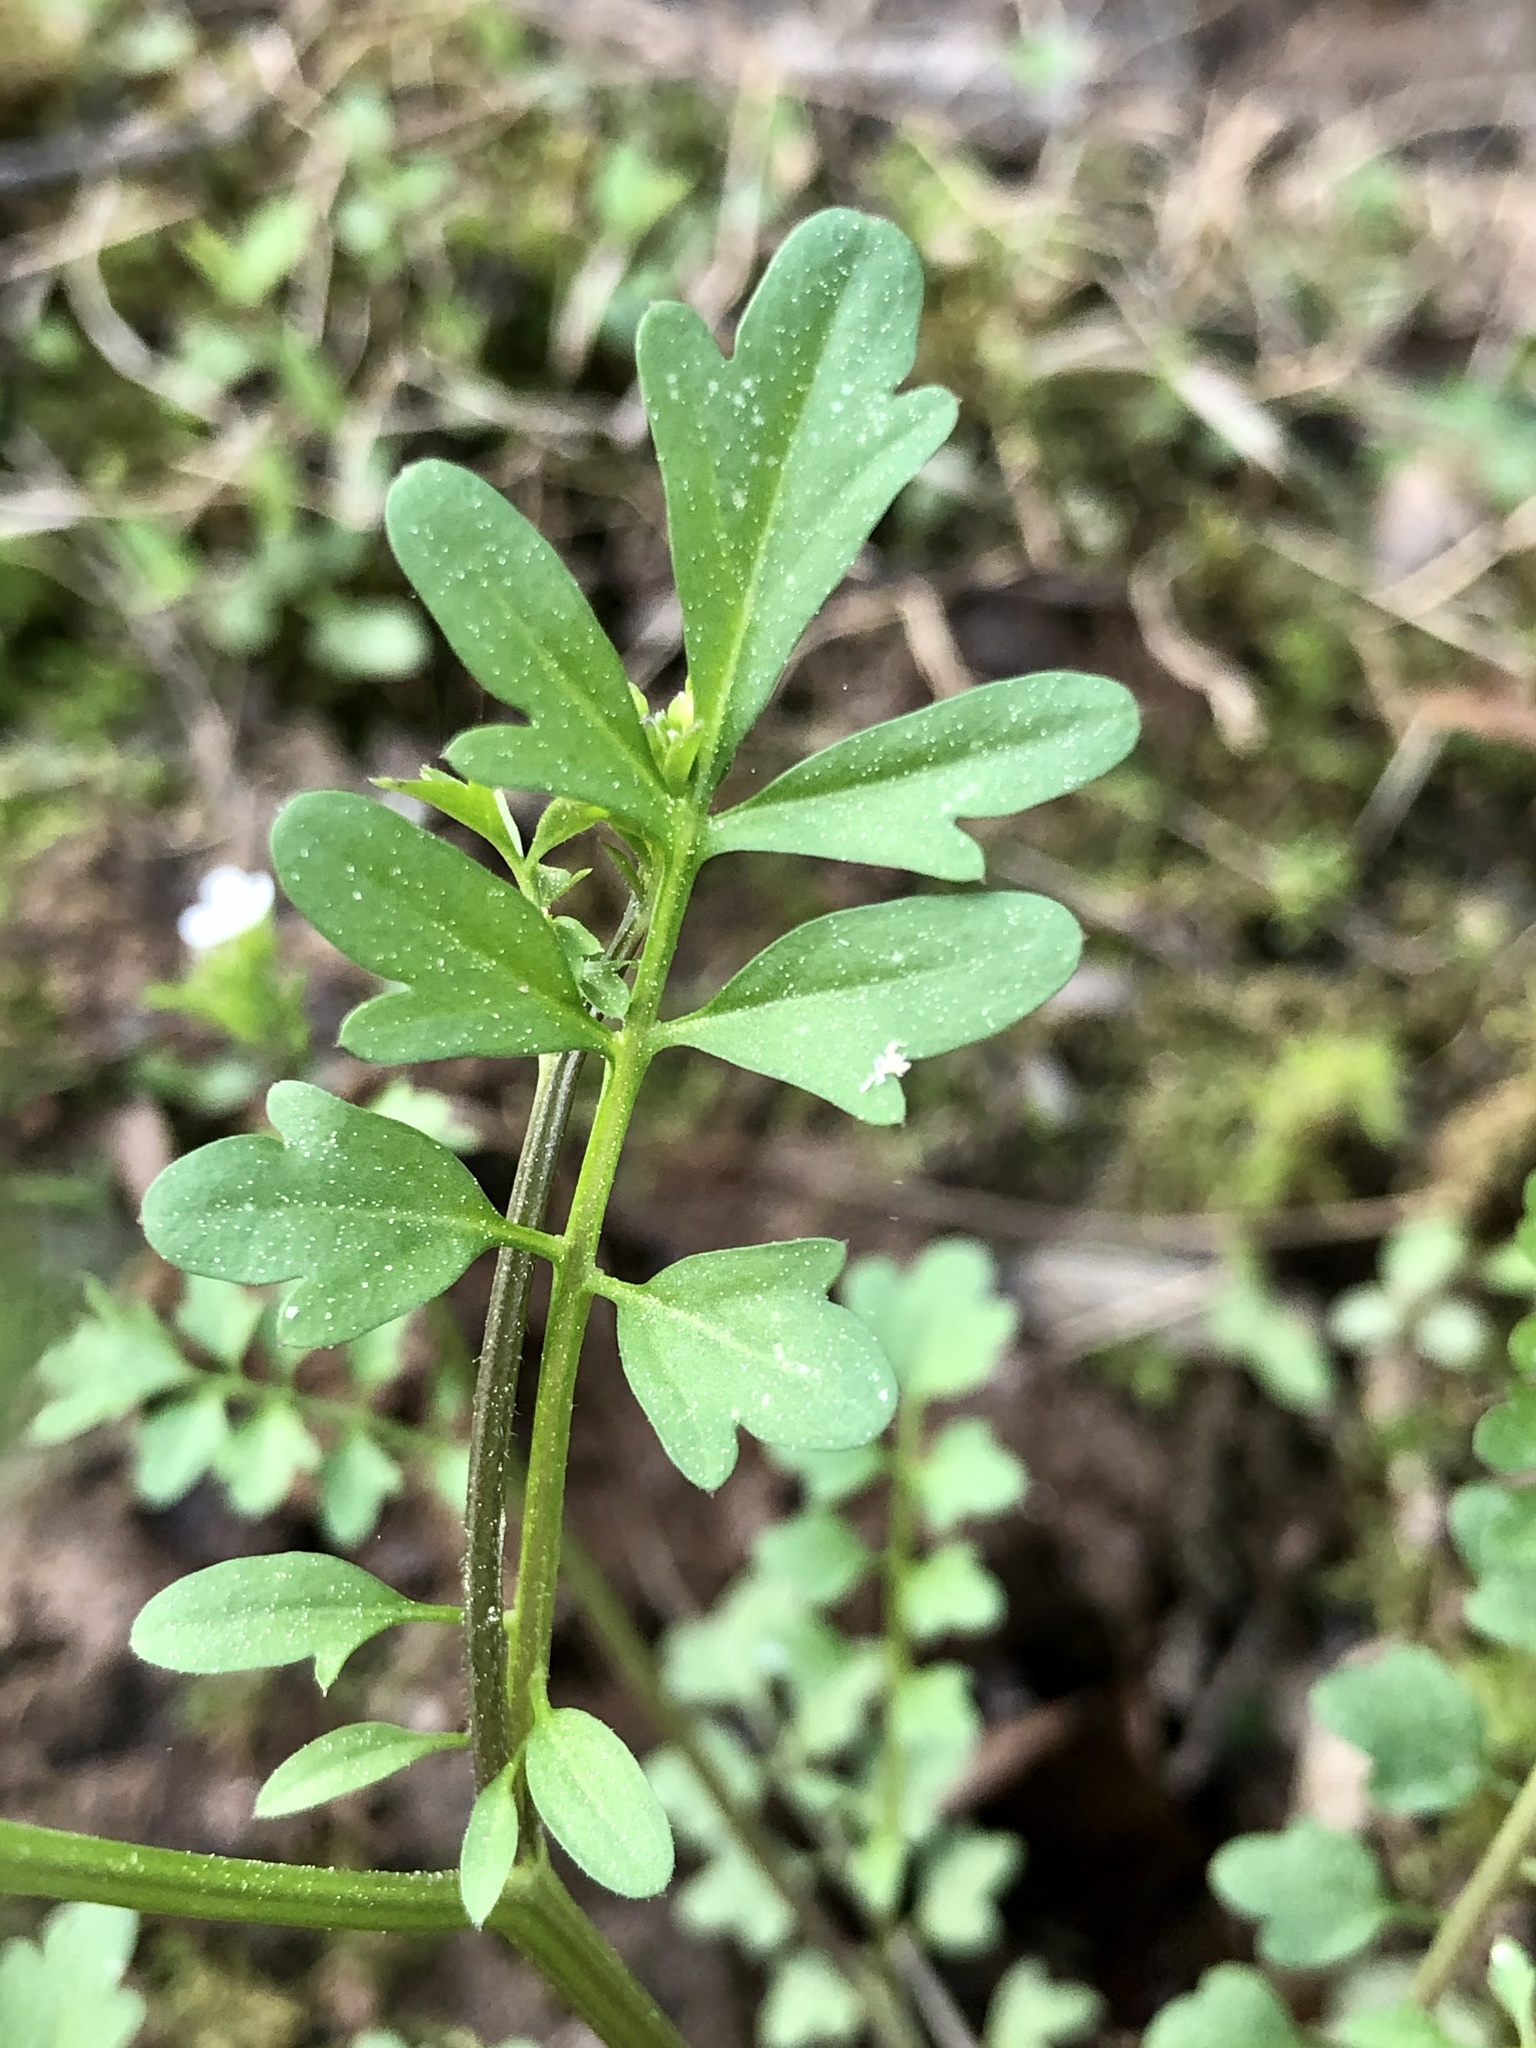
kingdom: Plantae
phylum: Tracheophyta
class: Magnoliopsida
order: Brassicales
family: Brassicaceae
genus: Cardamine
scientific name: Cardamine occulta
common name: Asian wavy bittercress
